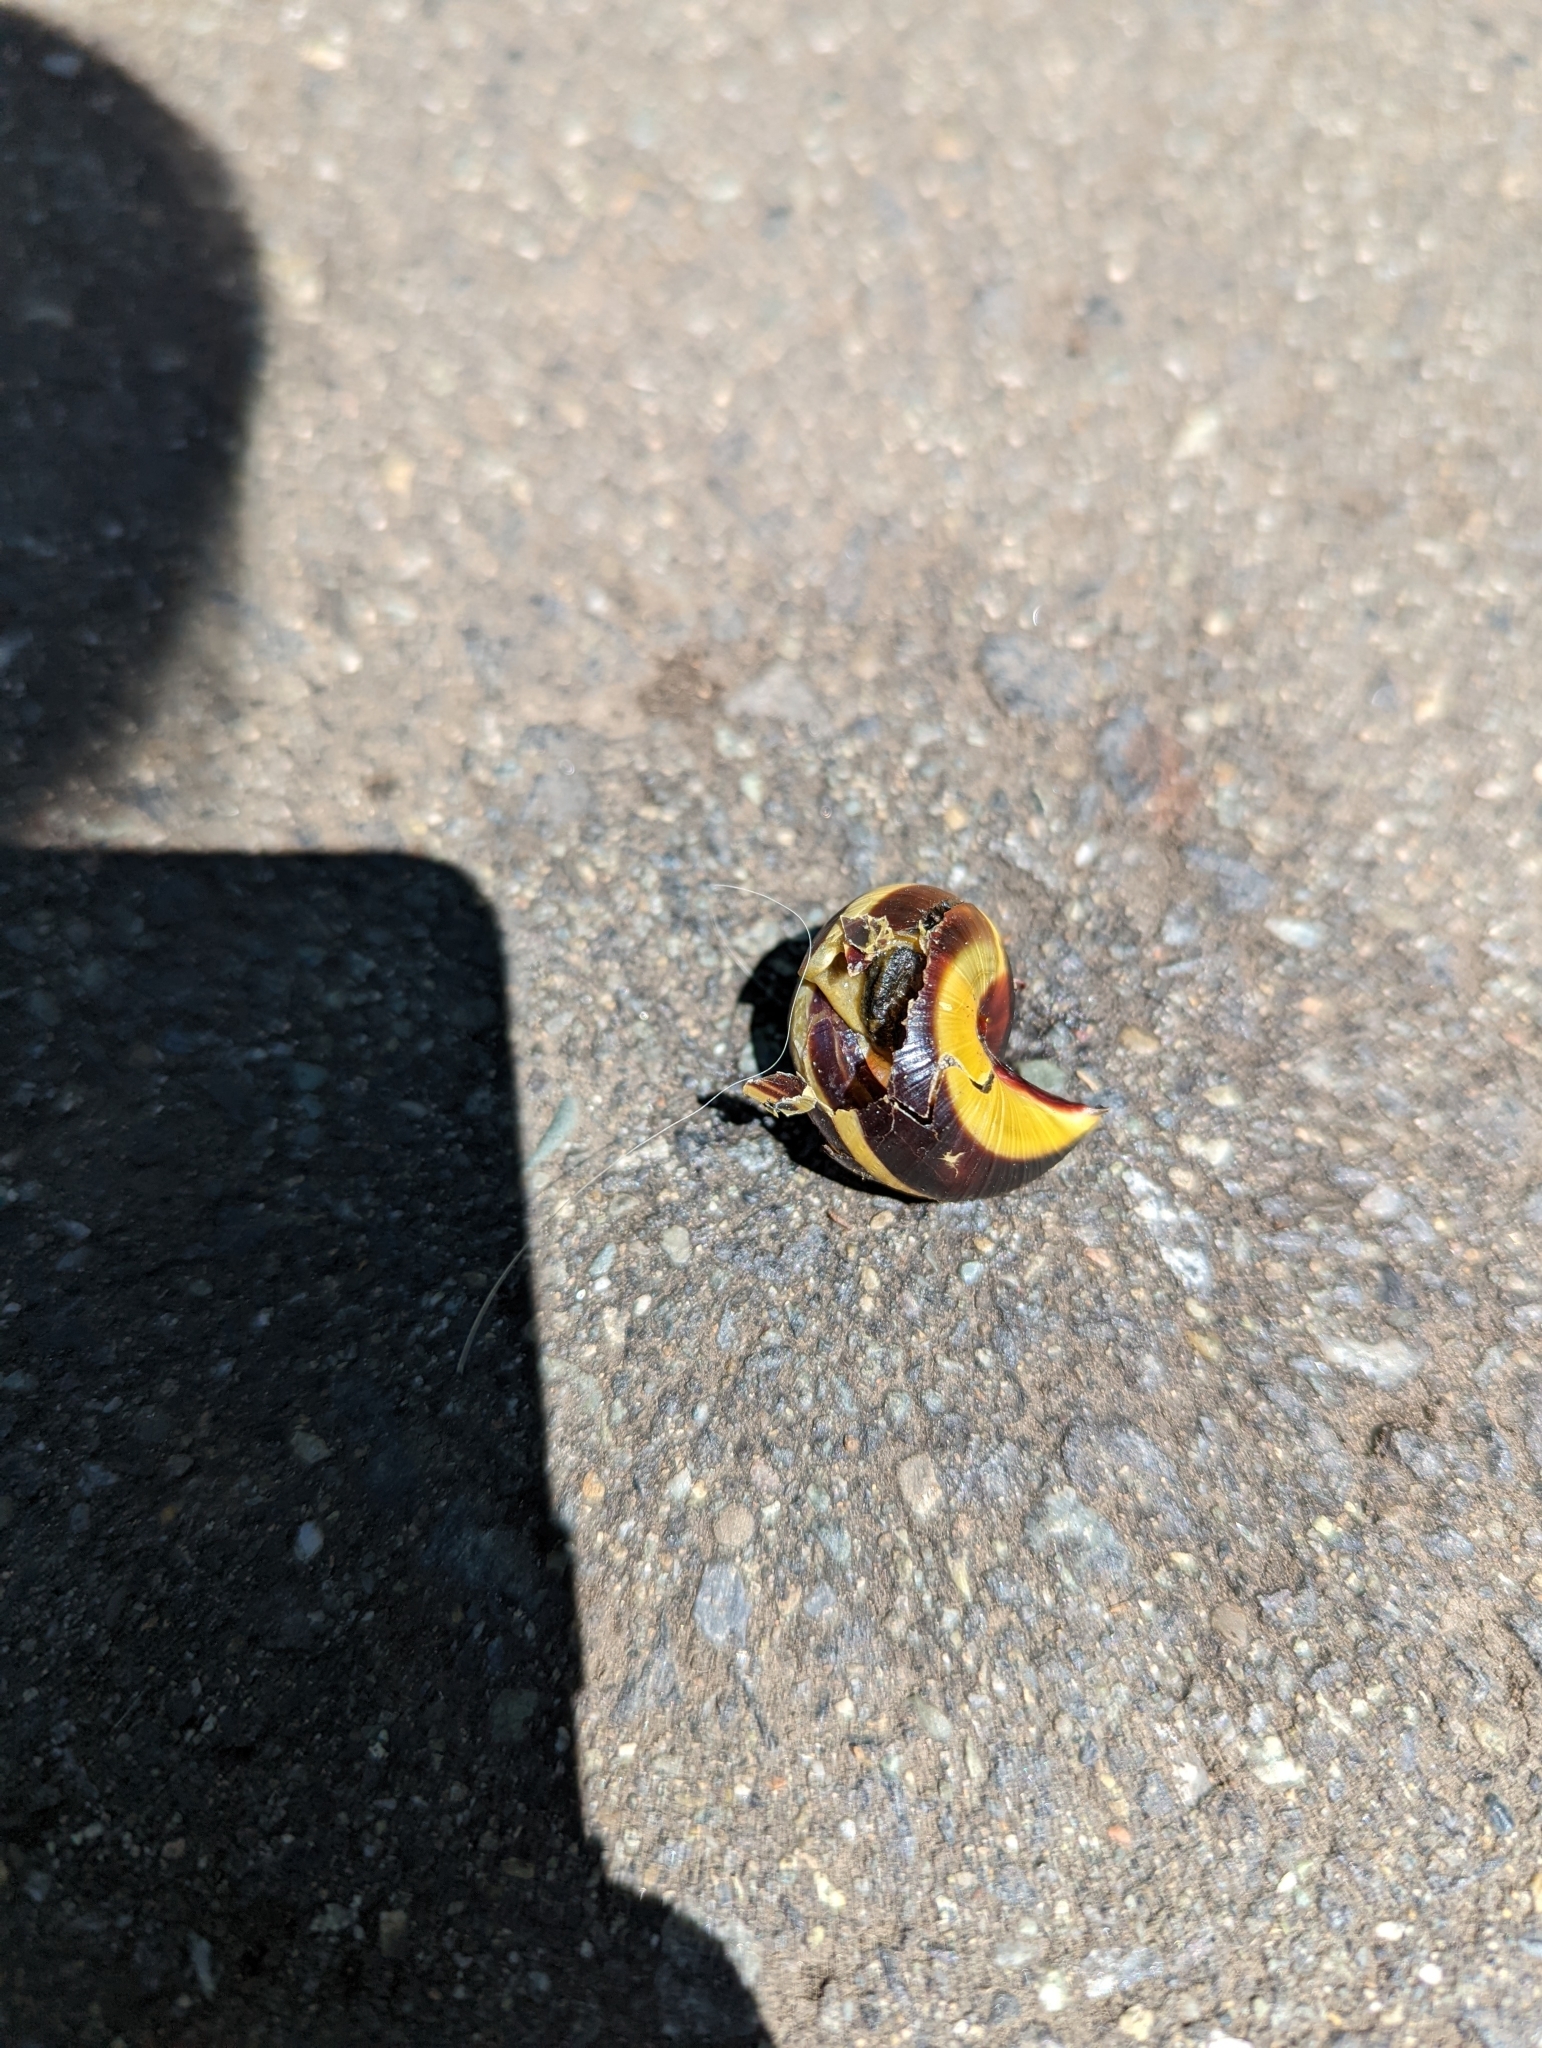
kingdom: Animalia
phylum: Mollusca
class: Gastropoda
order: Stylommatophora
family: Helicidae
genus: Cepaea
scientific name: Cepaea nemoralis
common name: Grovesnail
